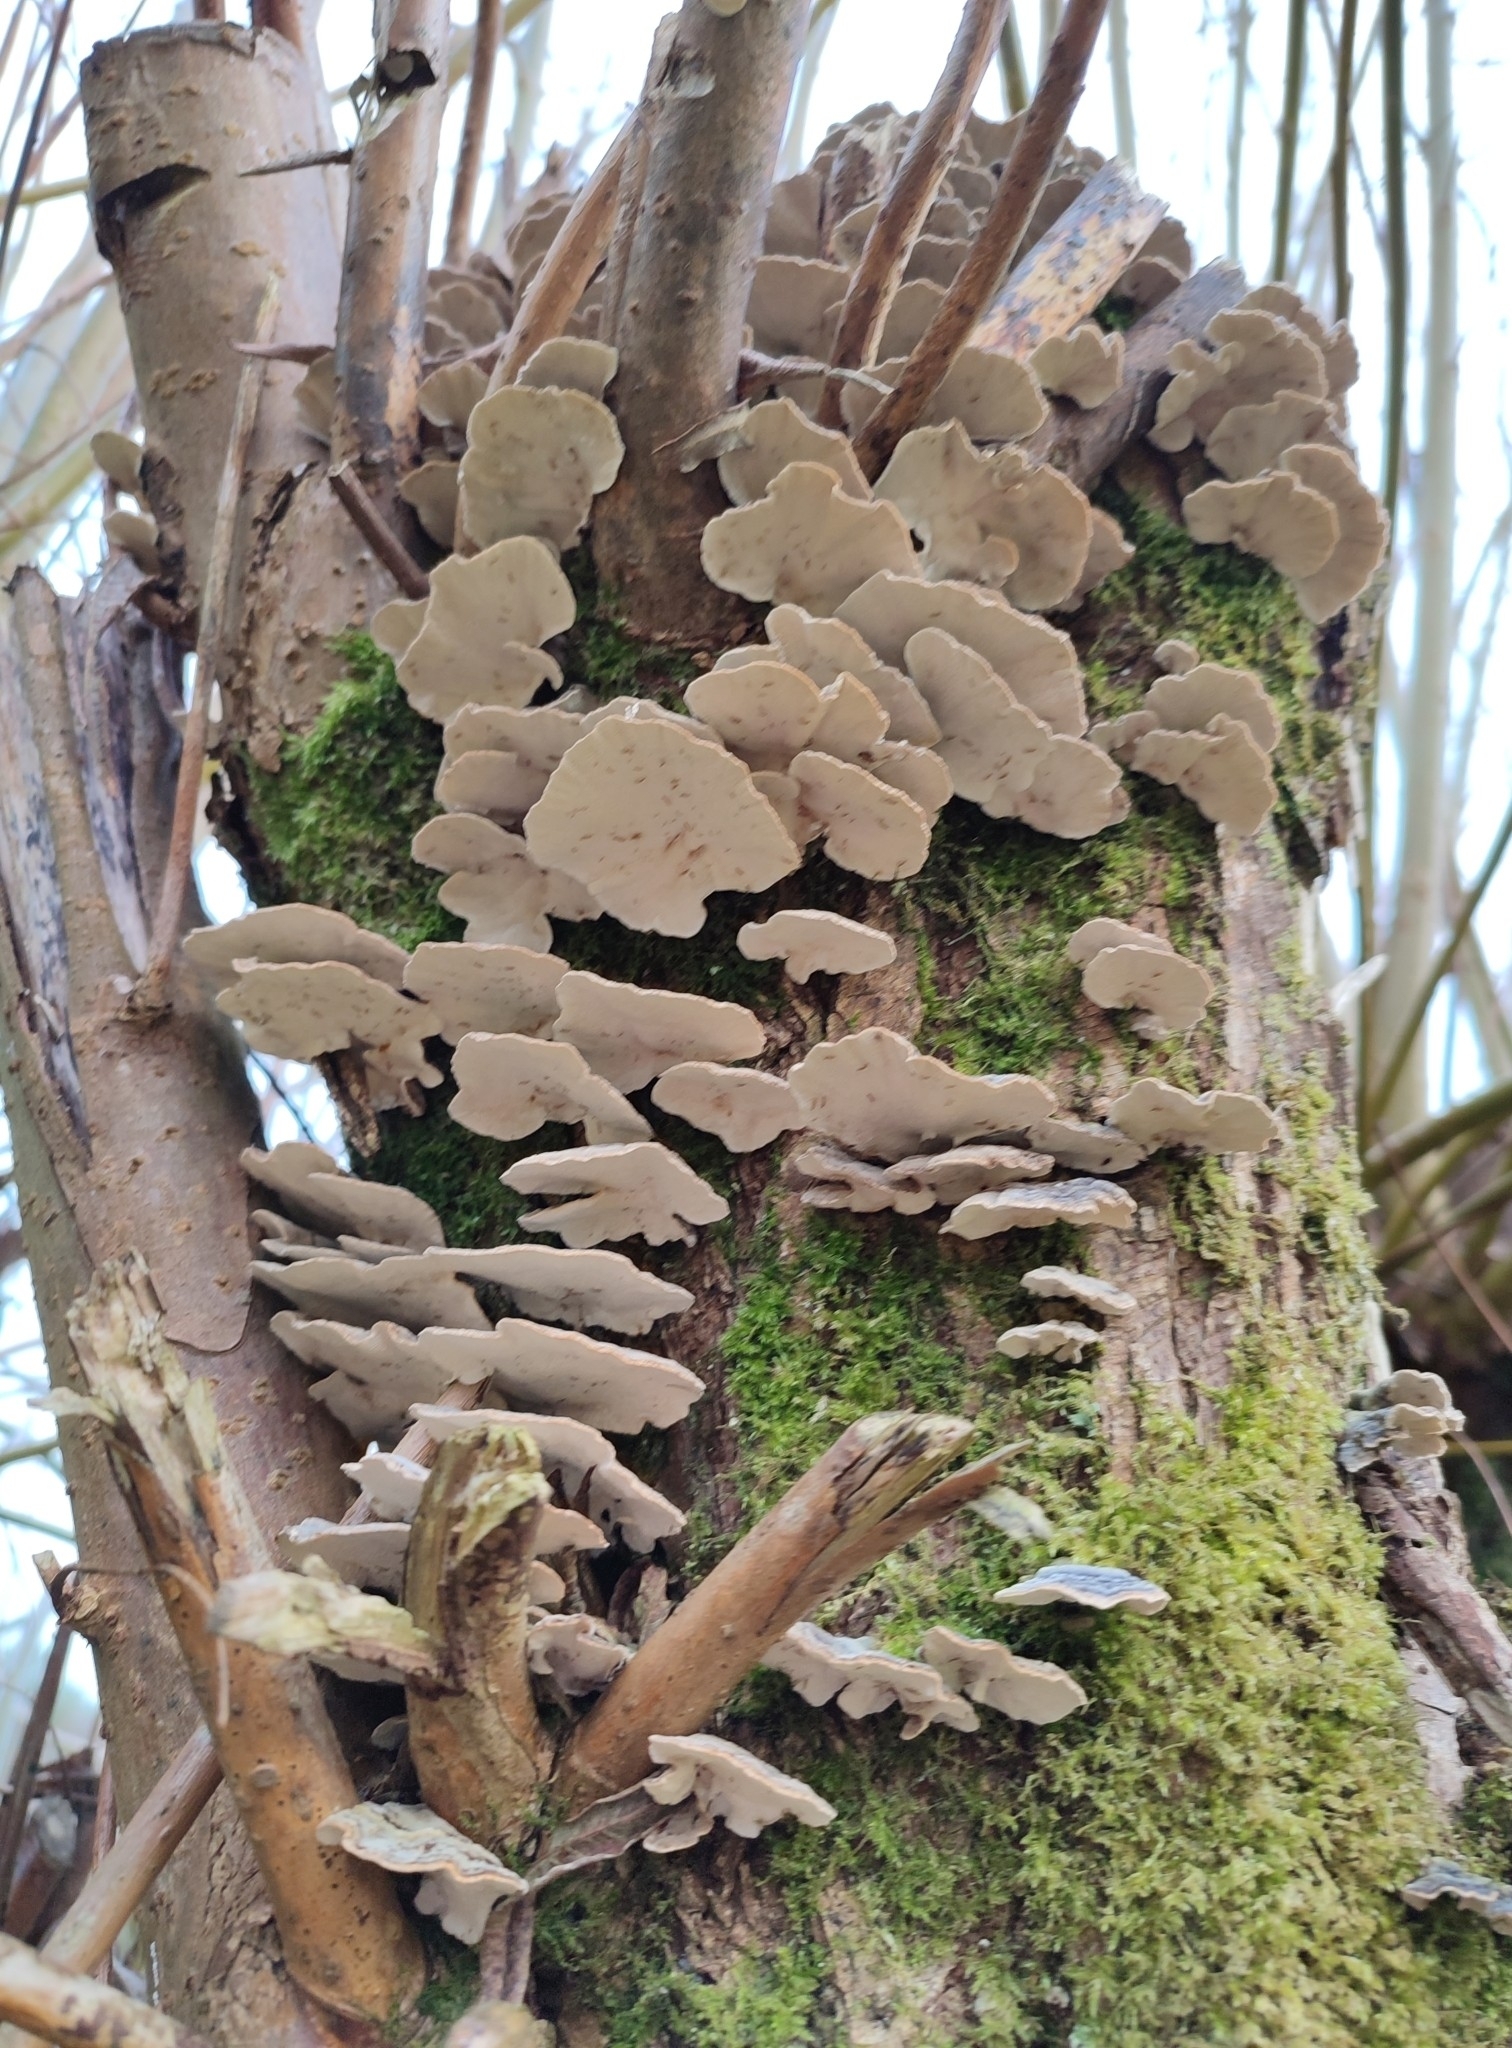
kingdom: Fungi
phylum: Basidiomycota
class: Agaricomycetes
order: Polyporales
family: Polyporaceae
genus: Trametes
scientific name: Trametes versicolor
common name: Turkeytail
